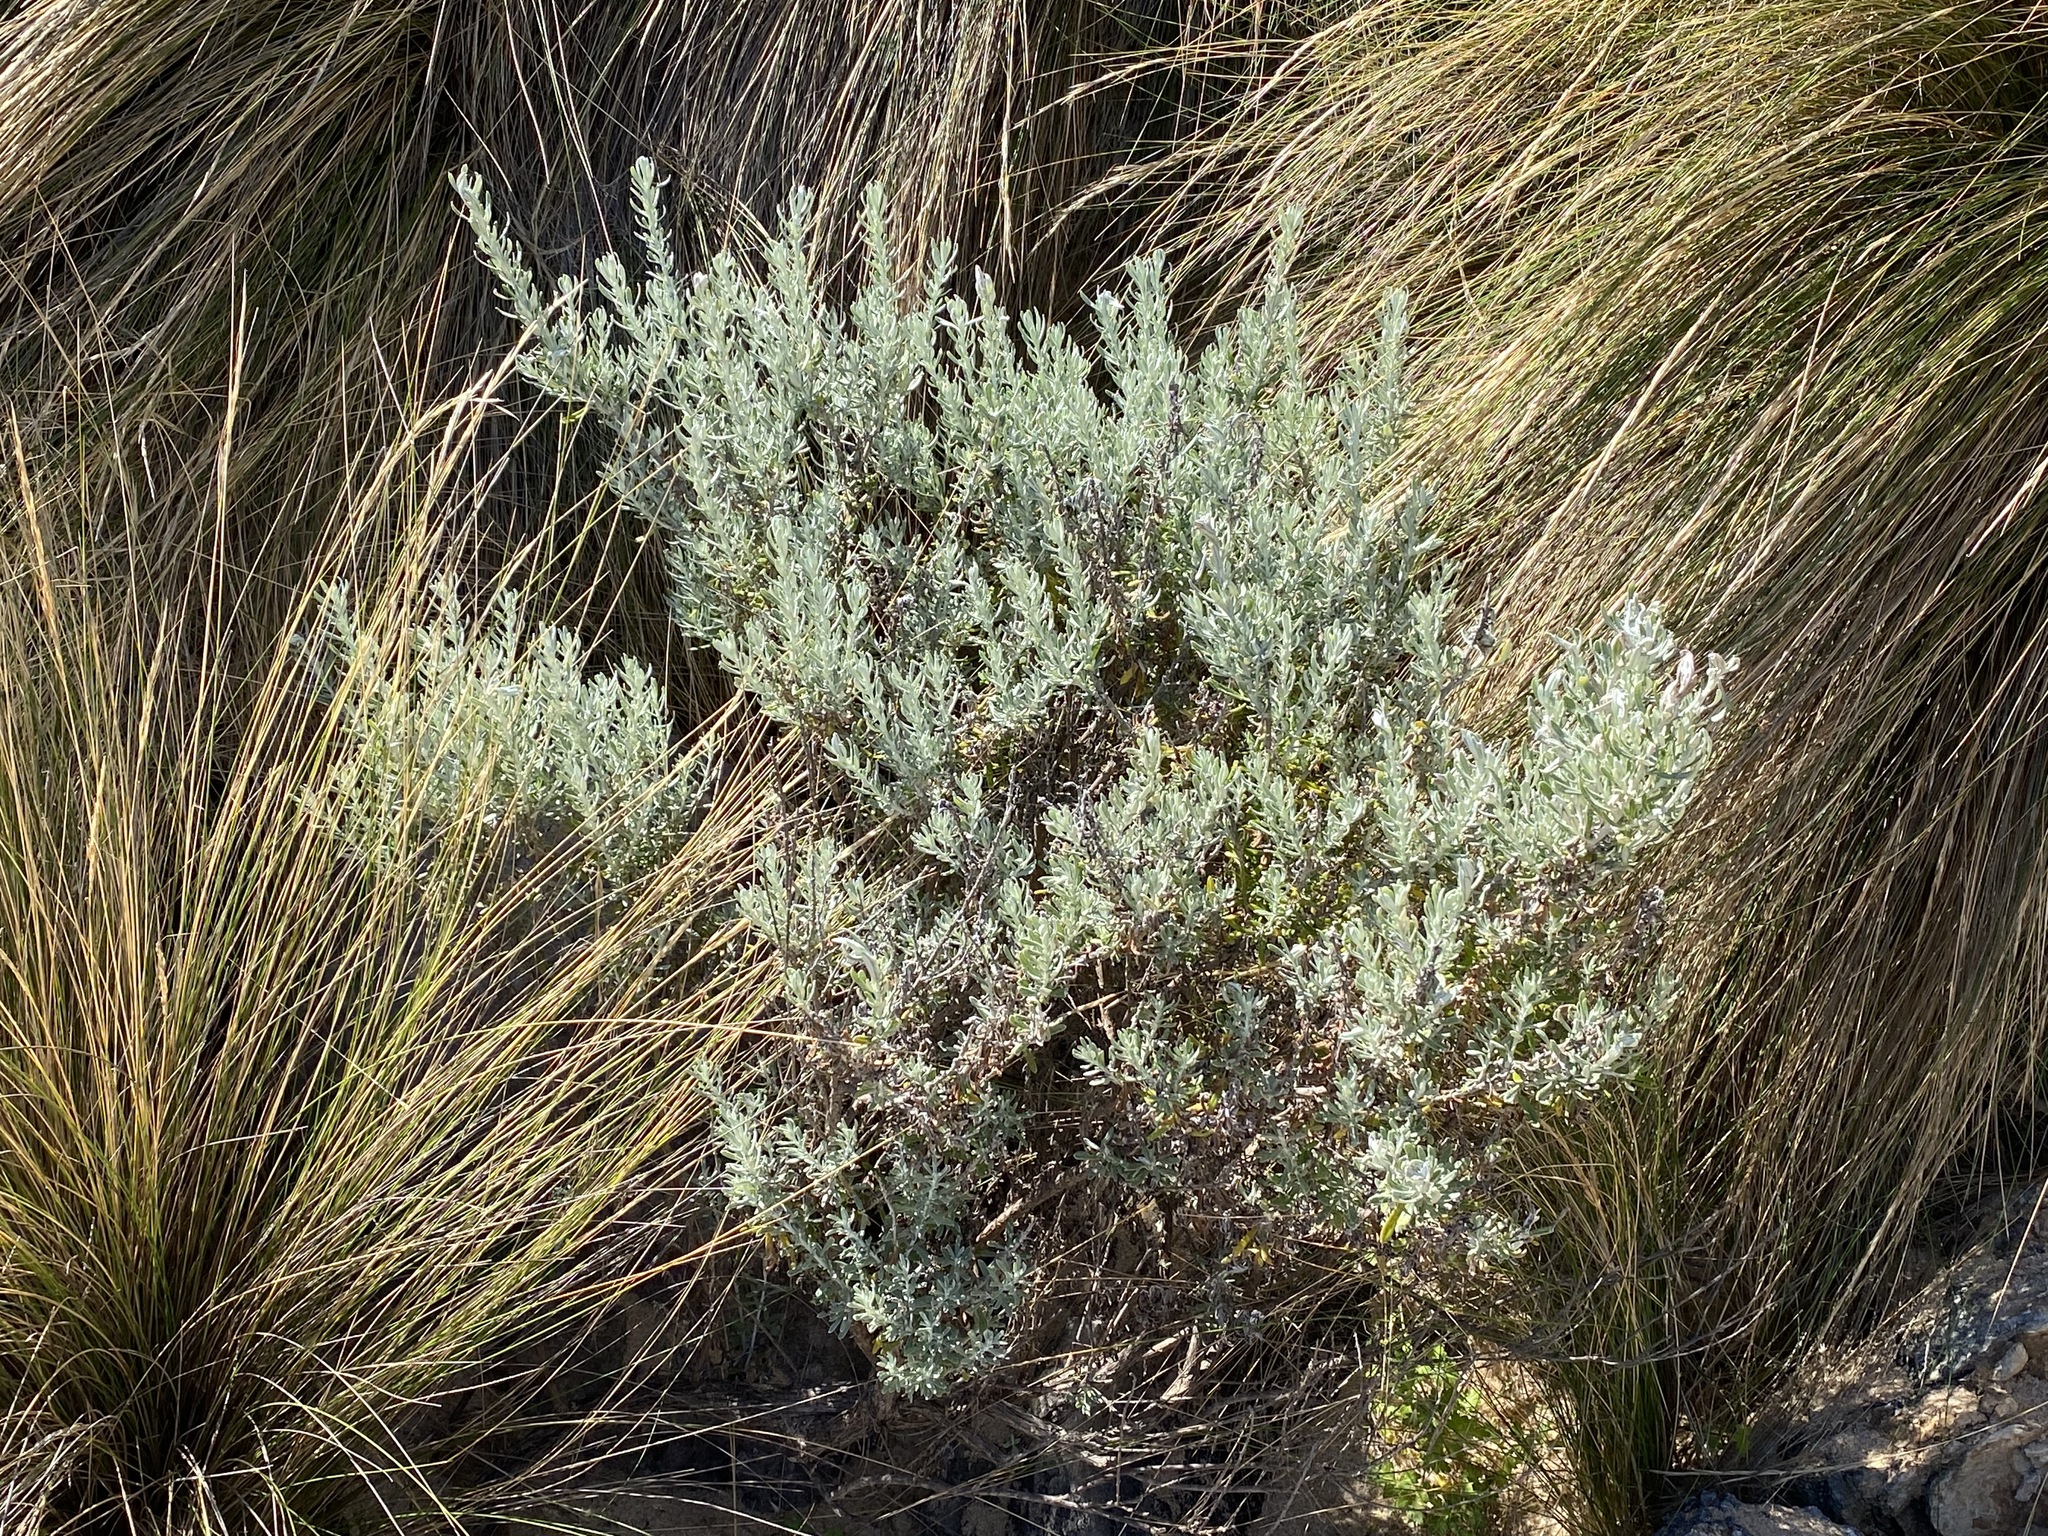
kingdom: Plantae
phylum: Tracheophyta
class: Magnoliopsida
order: Asterales
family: Asteraceae
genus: Olearia
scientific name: Olearia axillaris
